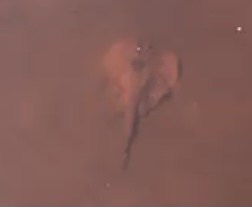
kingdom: Animalia
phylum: Chordata
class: Elasmobranchii
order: Myliobatiformes
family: Urotrygonidae
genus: Urobatis
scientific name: Urobatis jamaicensis
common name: Yellow stingray
